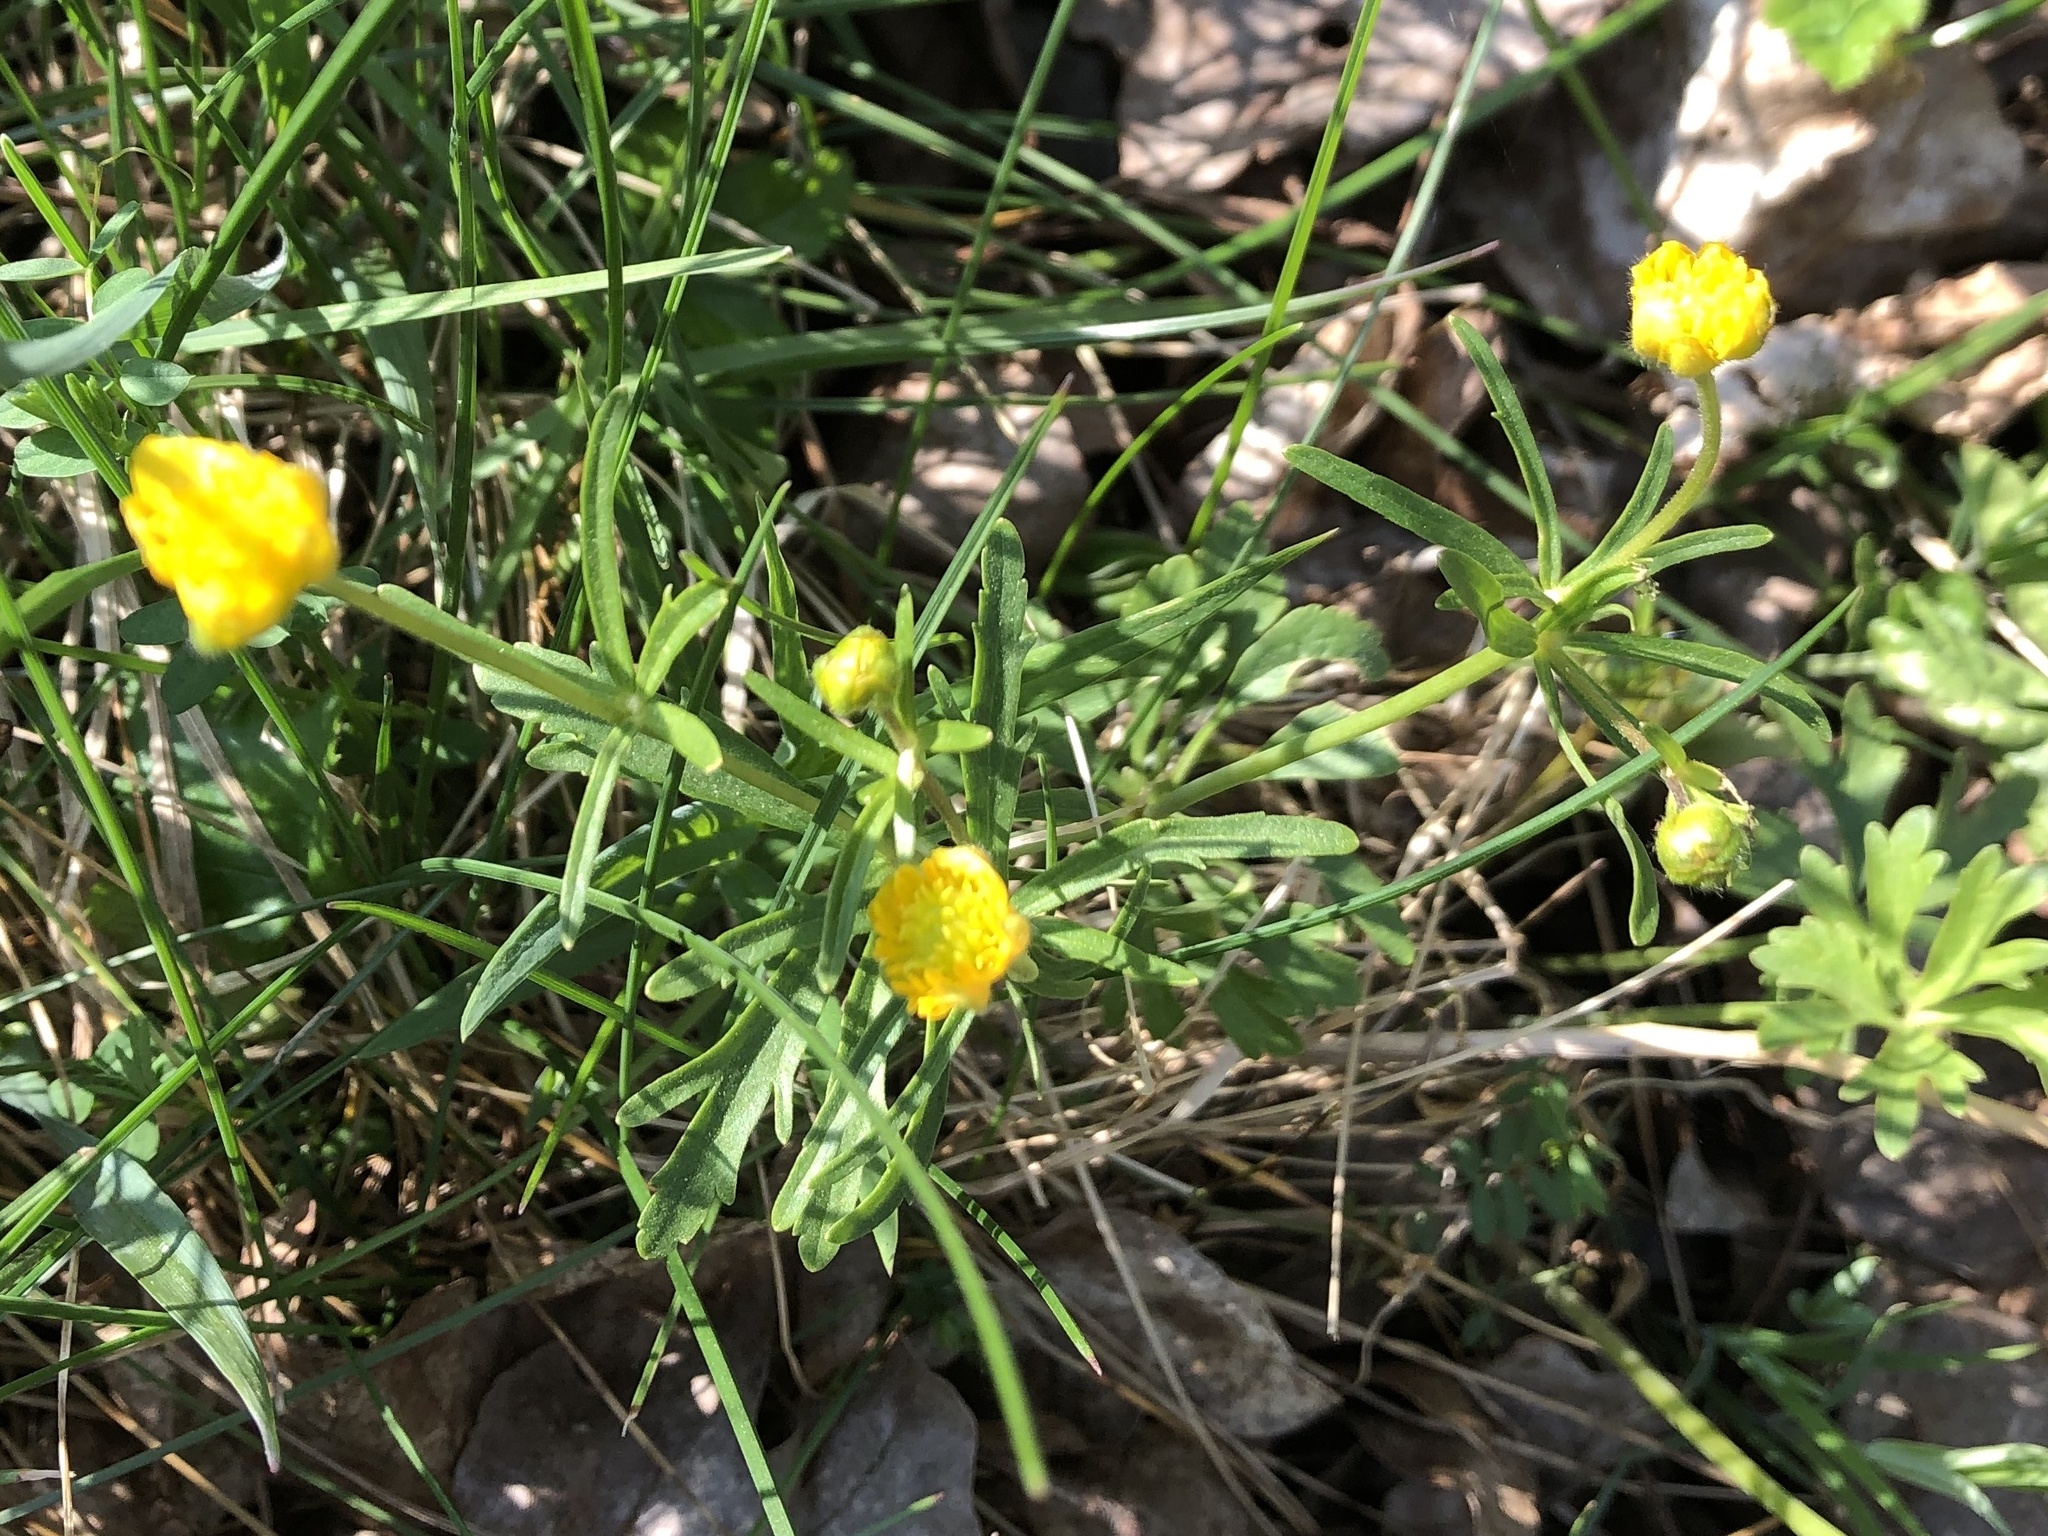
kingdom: Plantae
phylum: Tracheophyta
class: Magnoliopsida
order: Ranunculales
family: Ranunculaceae
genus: Ranunculus
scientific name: Ranunculus auricomus
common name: Goldilocks buttercup
